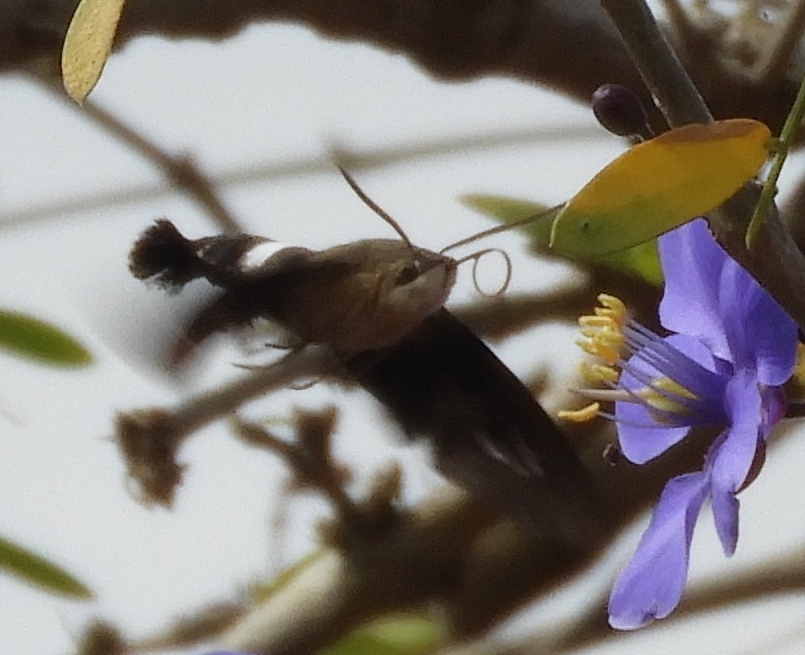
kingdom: Animalia
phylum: Arthropoda
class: Insecta
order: Lepidoptera
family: Sphingidae
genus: Aellopos
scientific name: Aellopos
